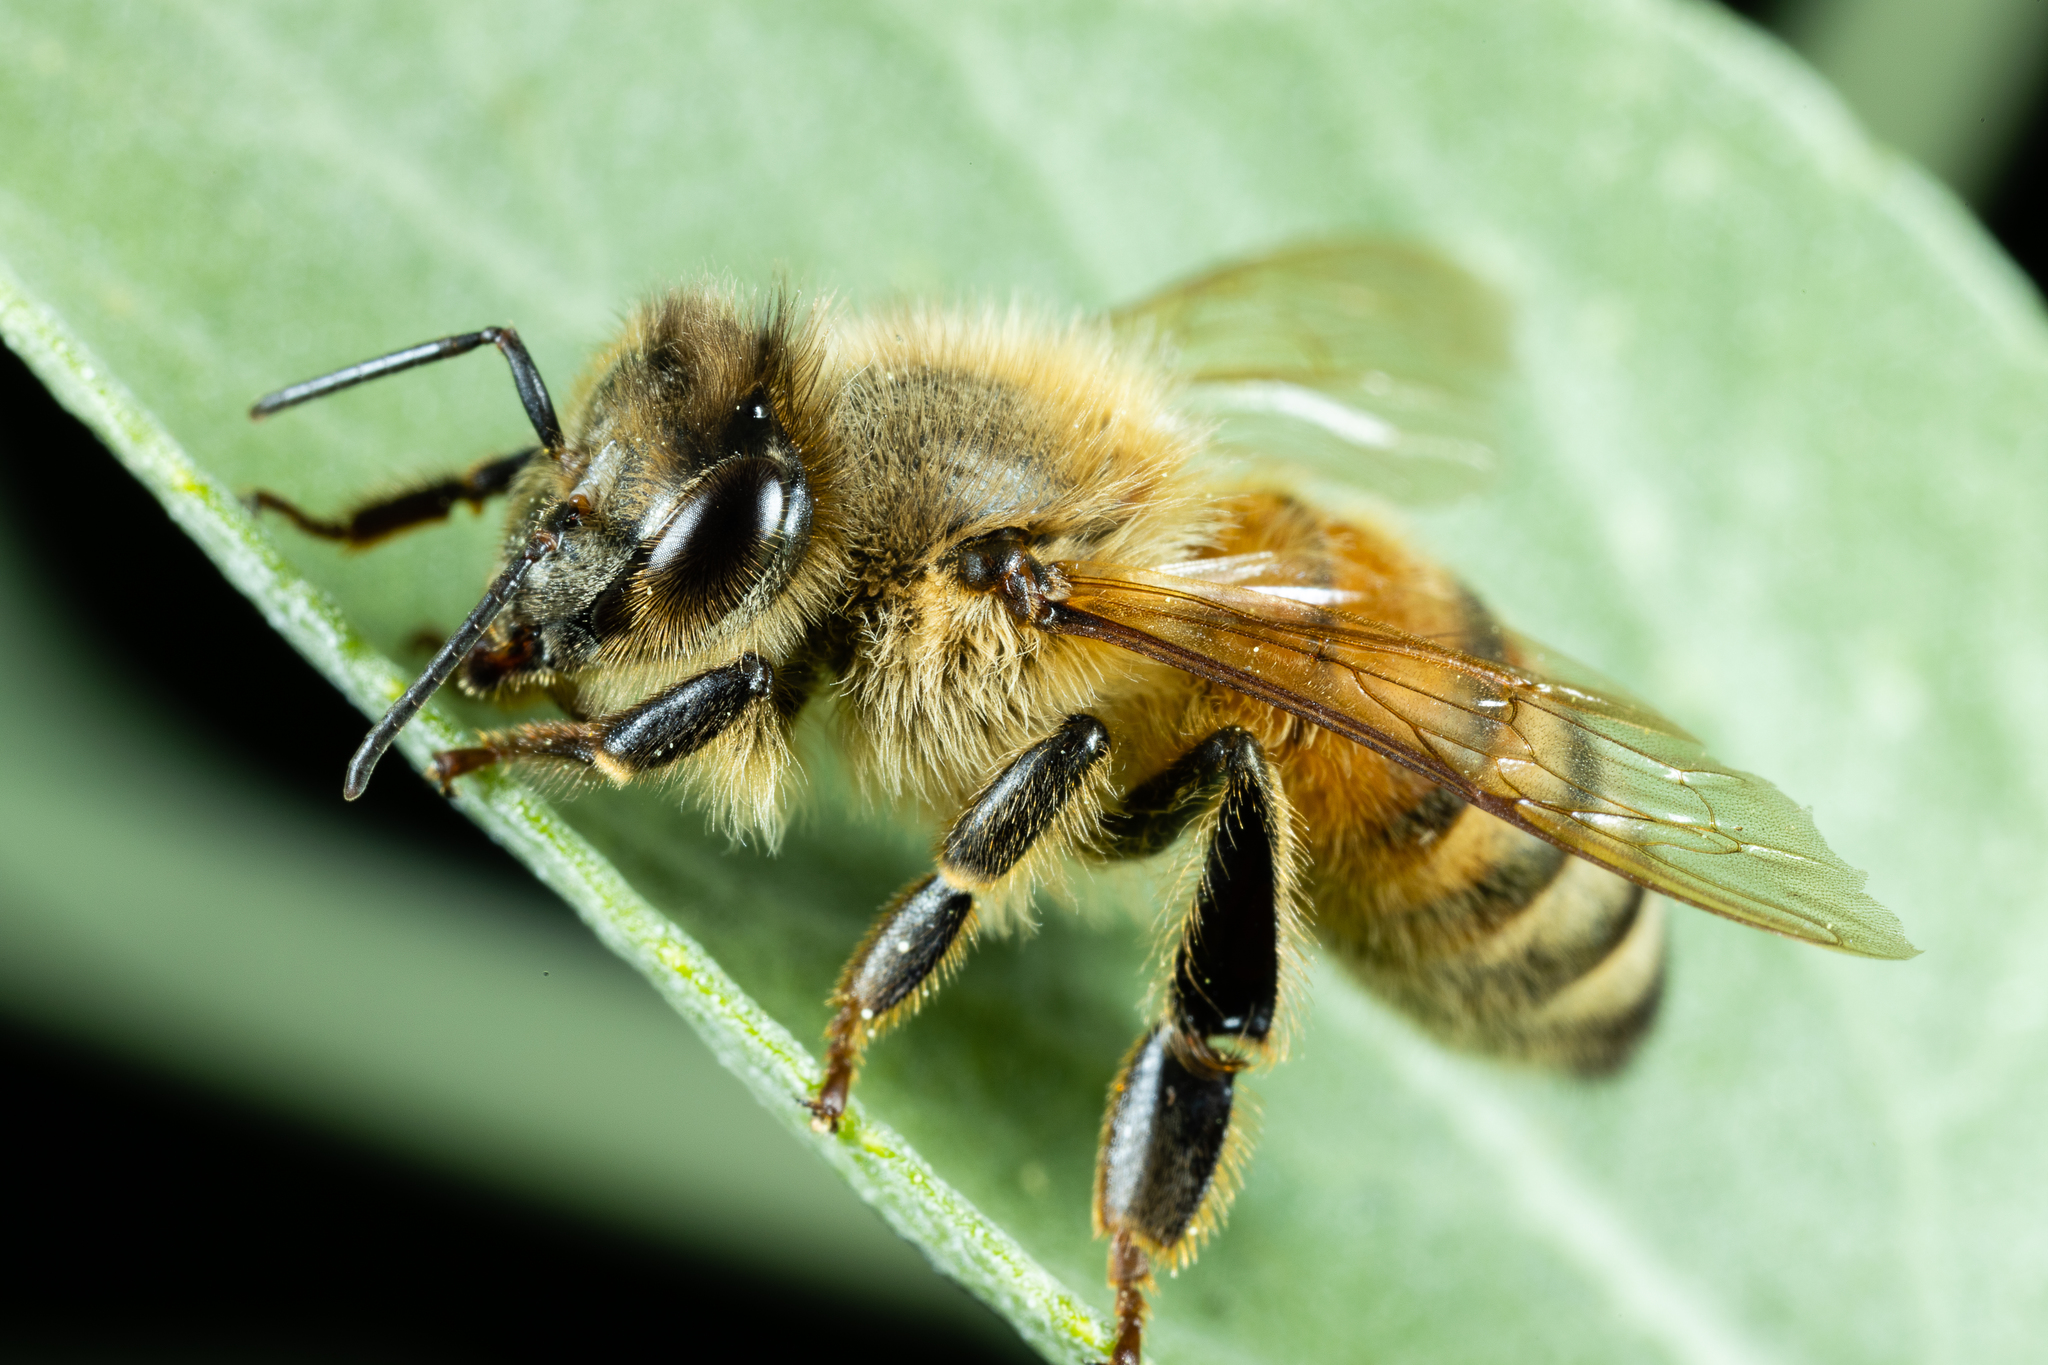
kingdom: Animalia
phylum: Arthropoda
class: Insecta
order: Hymenoptera
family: Apidae
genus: Apis
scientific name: Apis mellifera
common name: Honey bee
